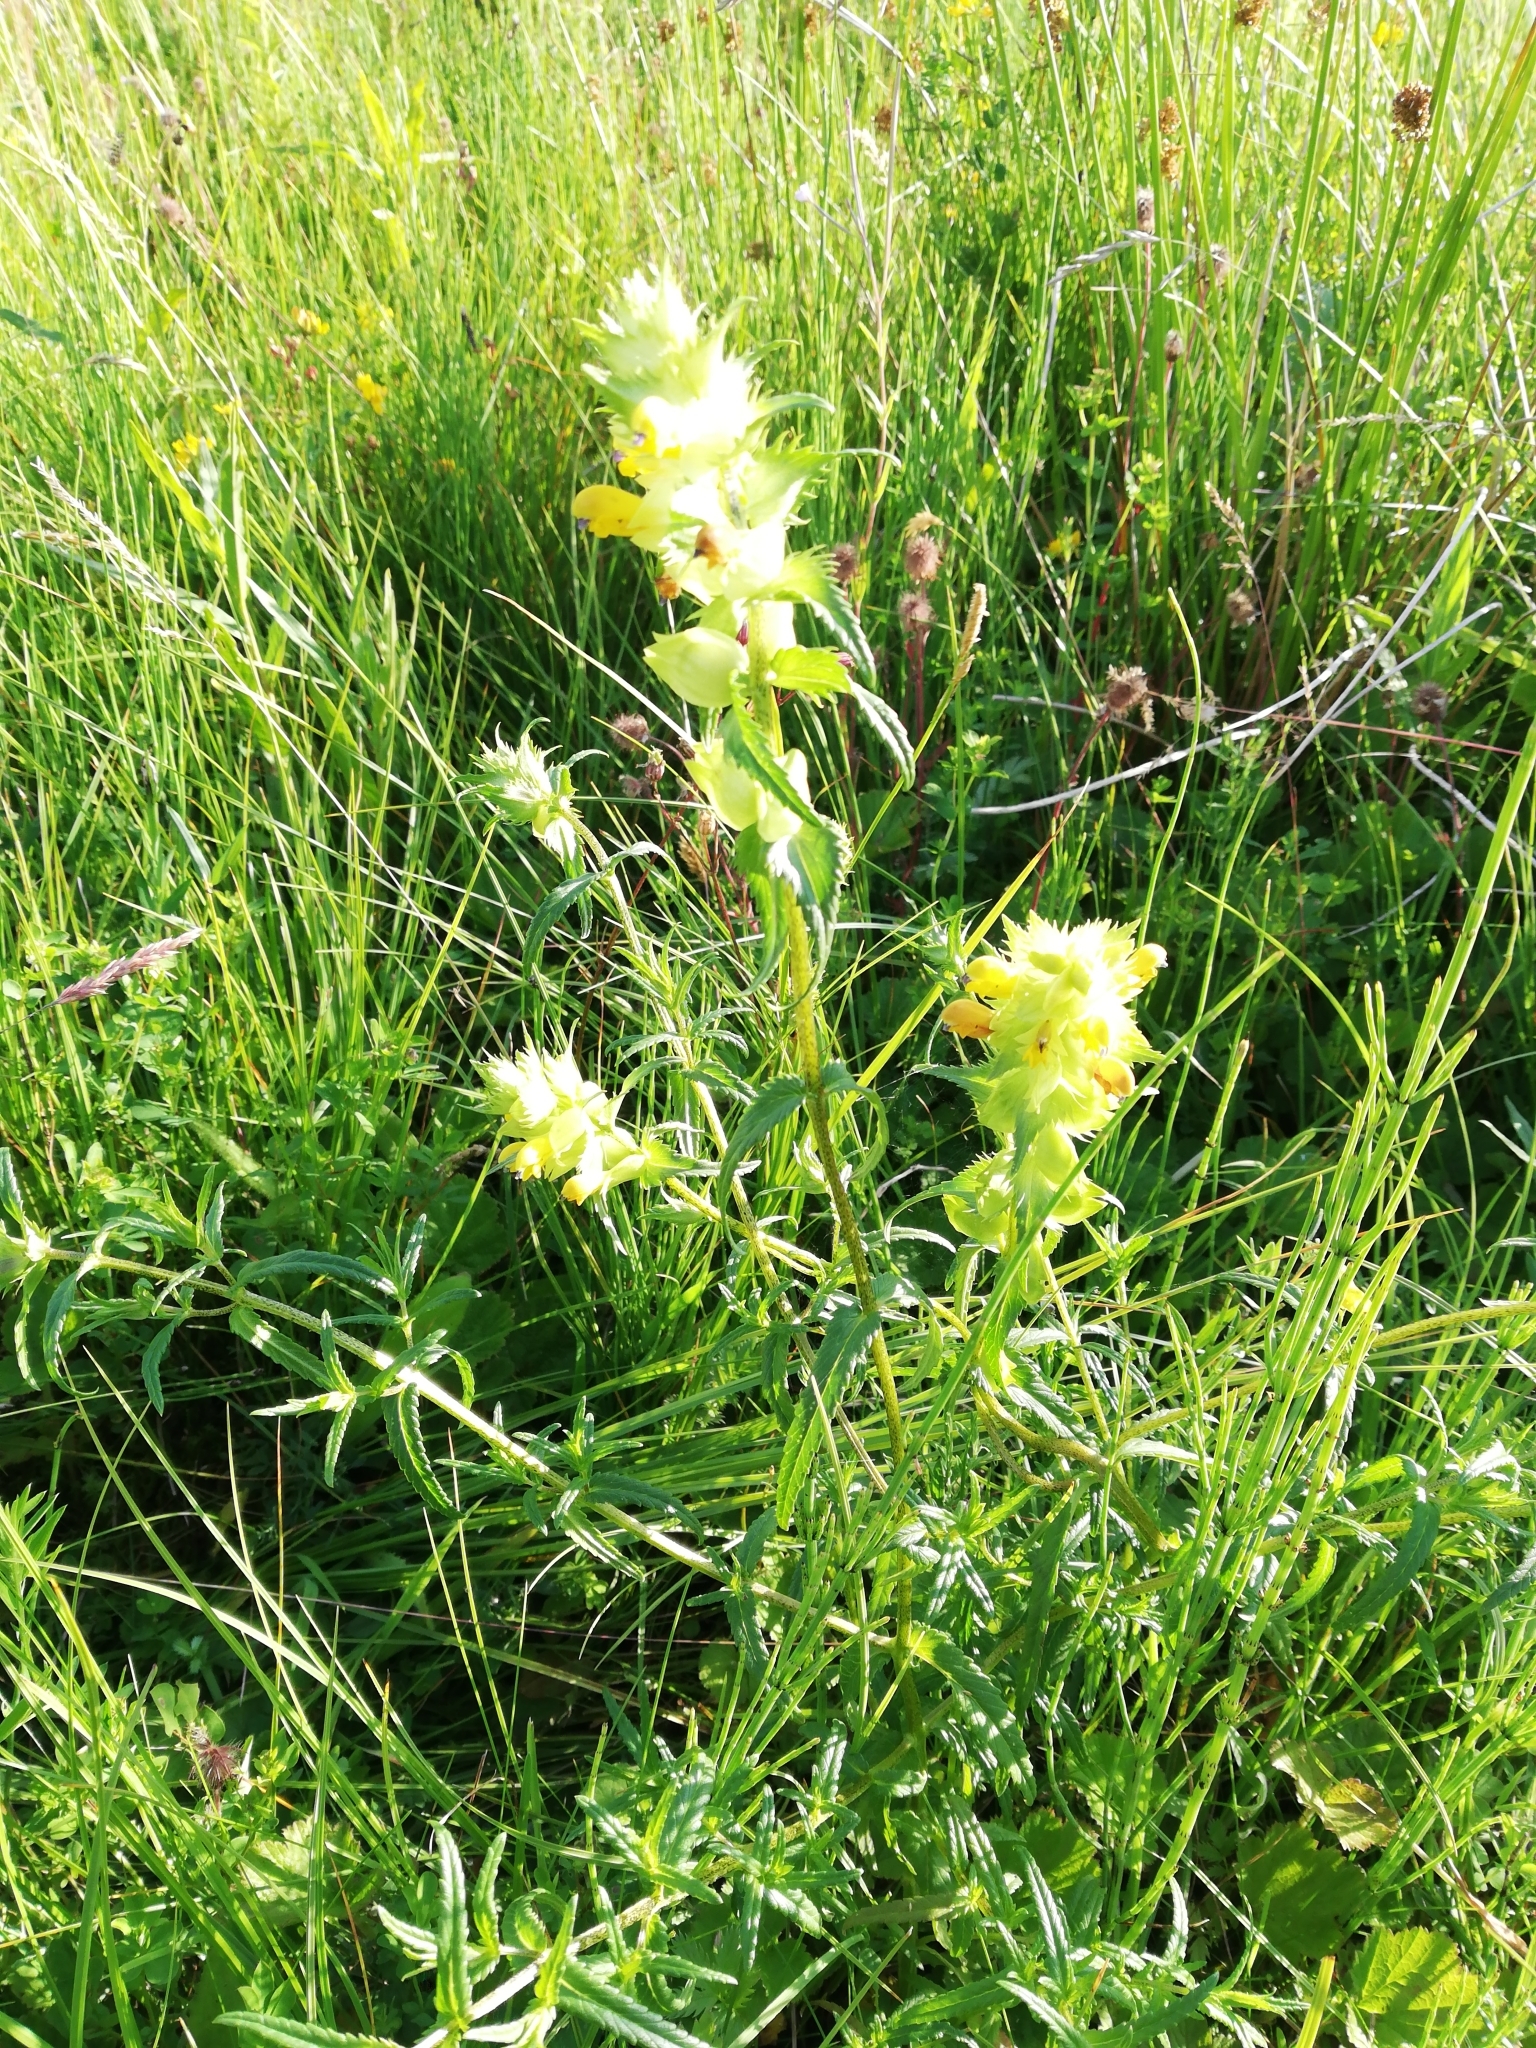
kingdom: Plantae
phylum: Tracheophyta
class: Magnoliopsida
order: Lamiales
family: Orobanchaceae
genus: Rhinanthus
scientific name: Rhinanthus serotinus
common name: Late-flowering yellow rattle
